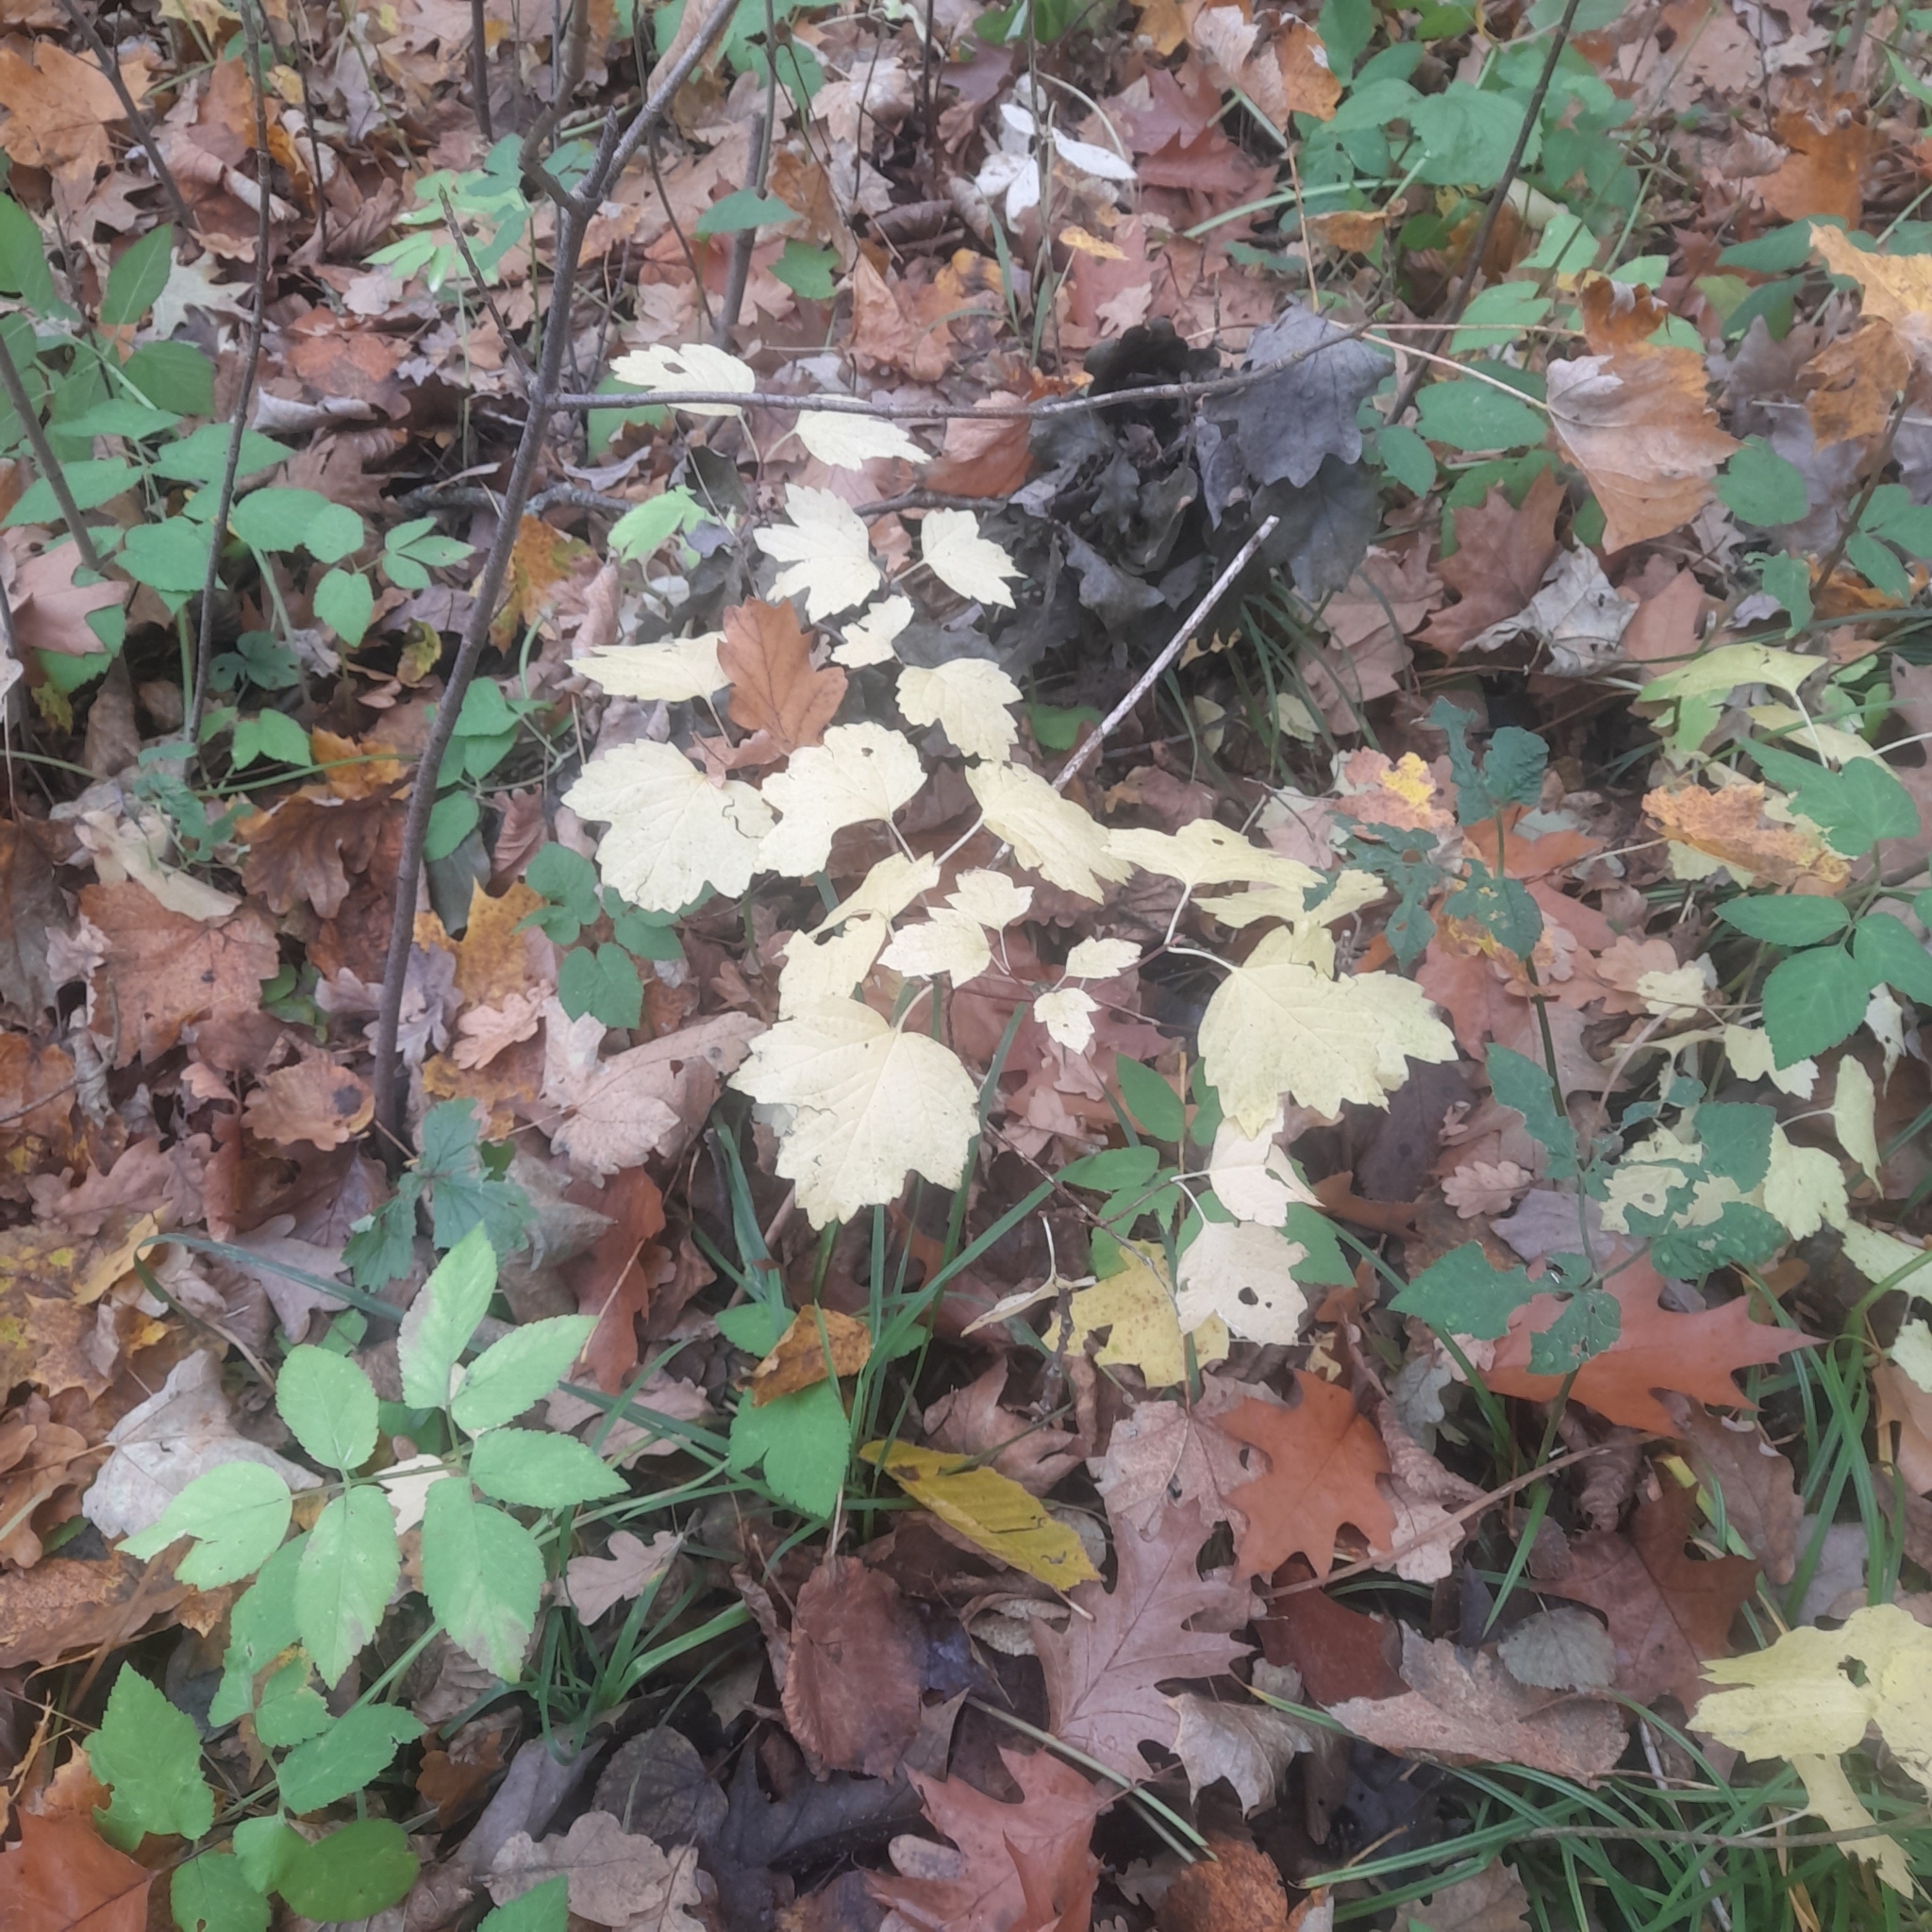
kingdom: Plantae
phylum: Tracheophyta
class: Magnoliopsida
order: Dipsacales
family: Viburnaceae
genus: Viburnum
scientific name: Viburnum opulus
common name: Guelder-rose
